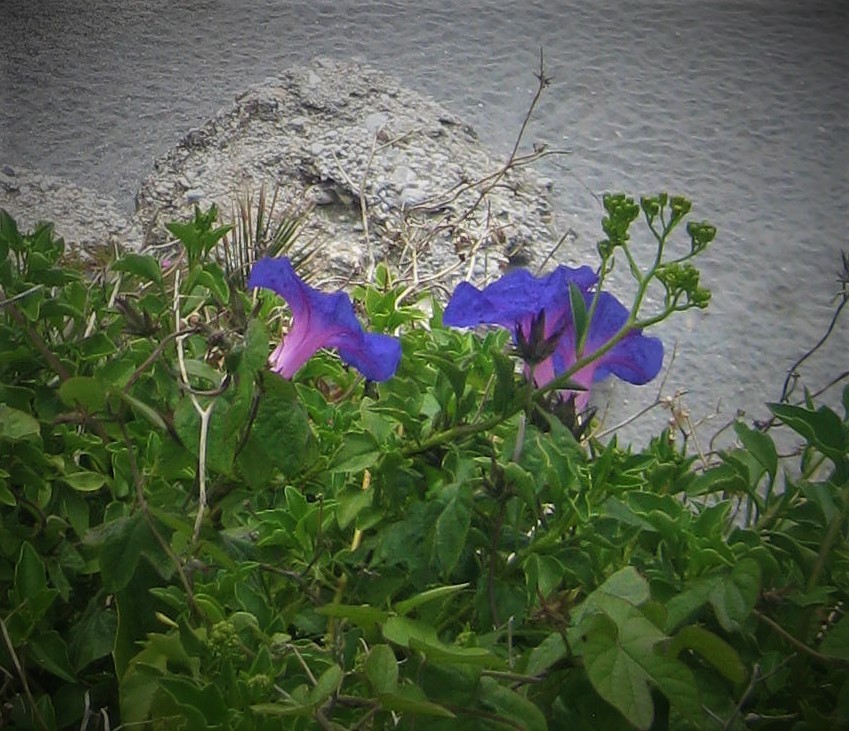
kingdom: Plantae
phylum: Tracheophyta
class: Magnoliopsida
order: Solanales
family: Convolvulaceae
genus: Ipomoea
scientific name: Ipomoea indica
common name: Blue dawnflower
